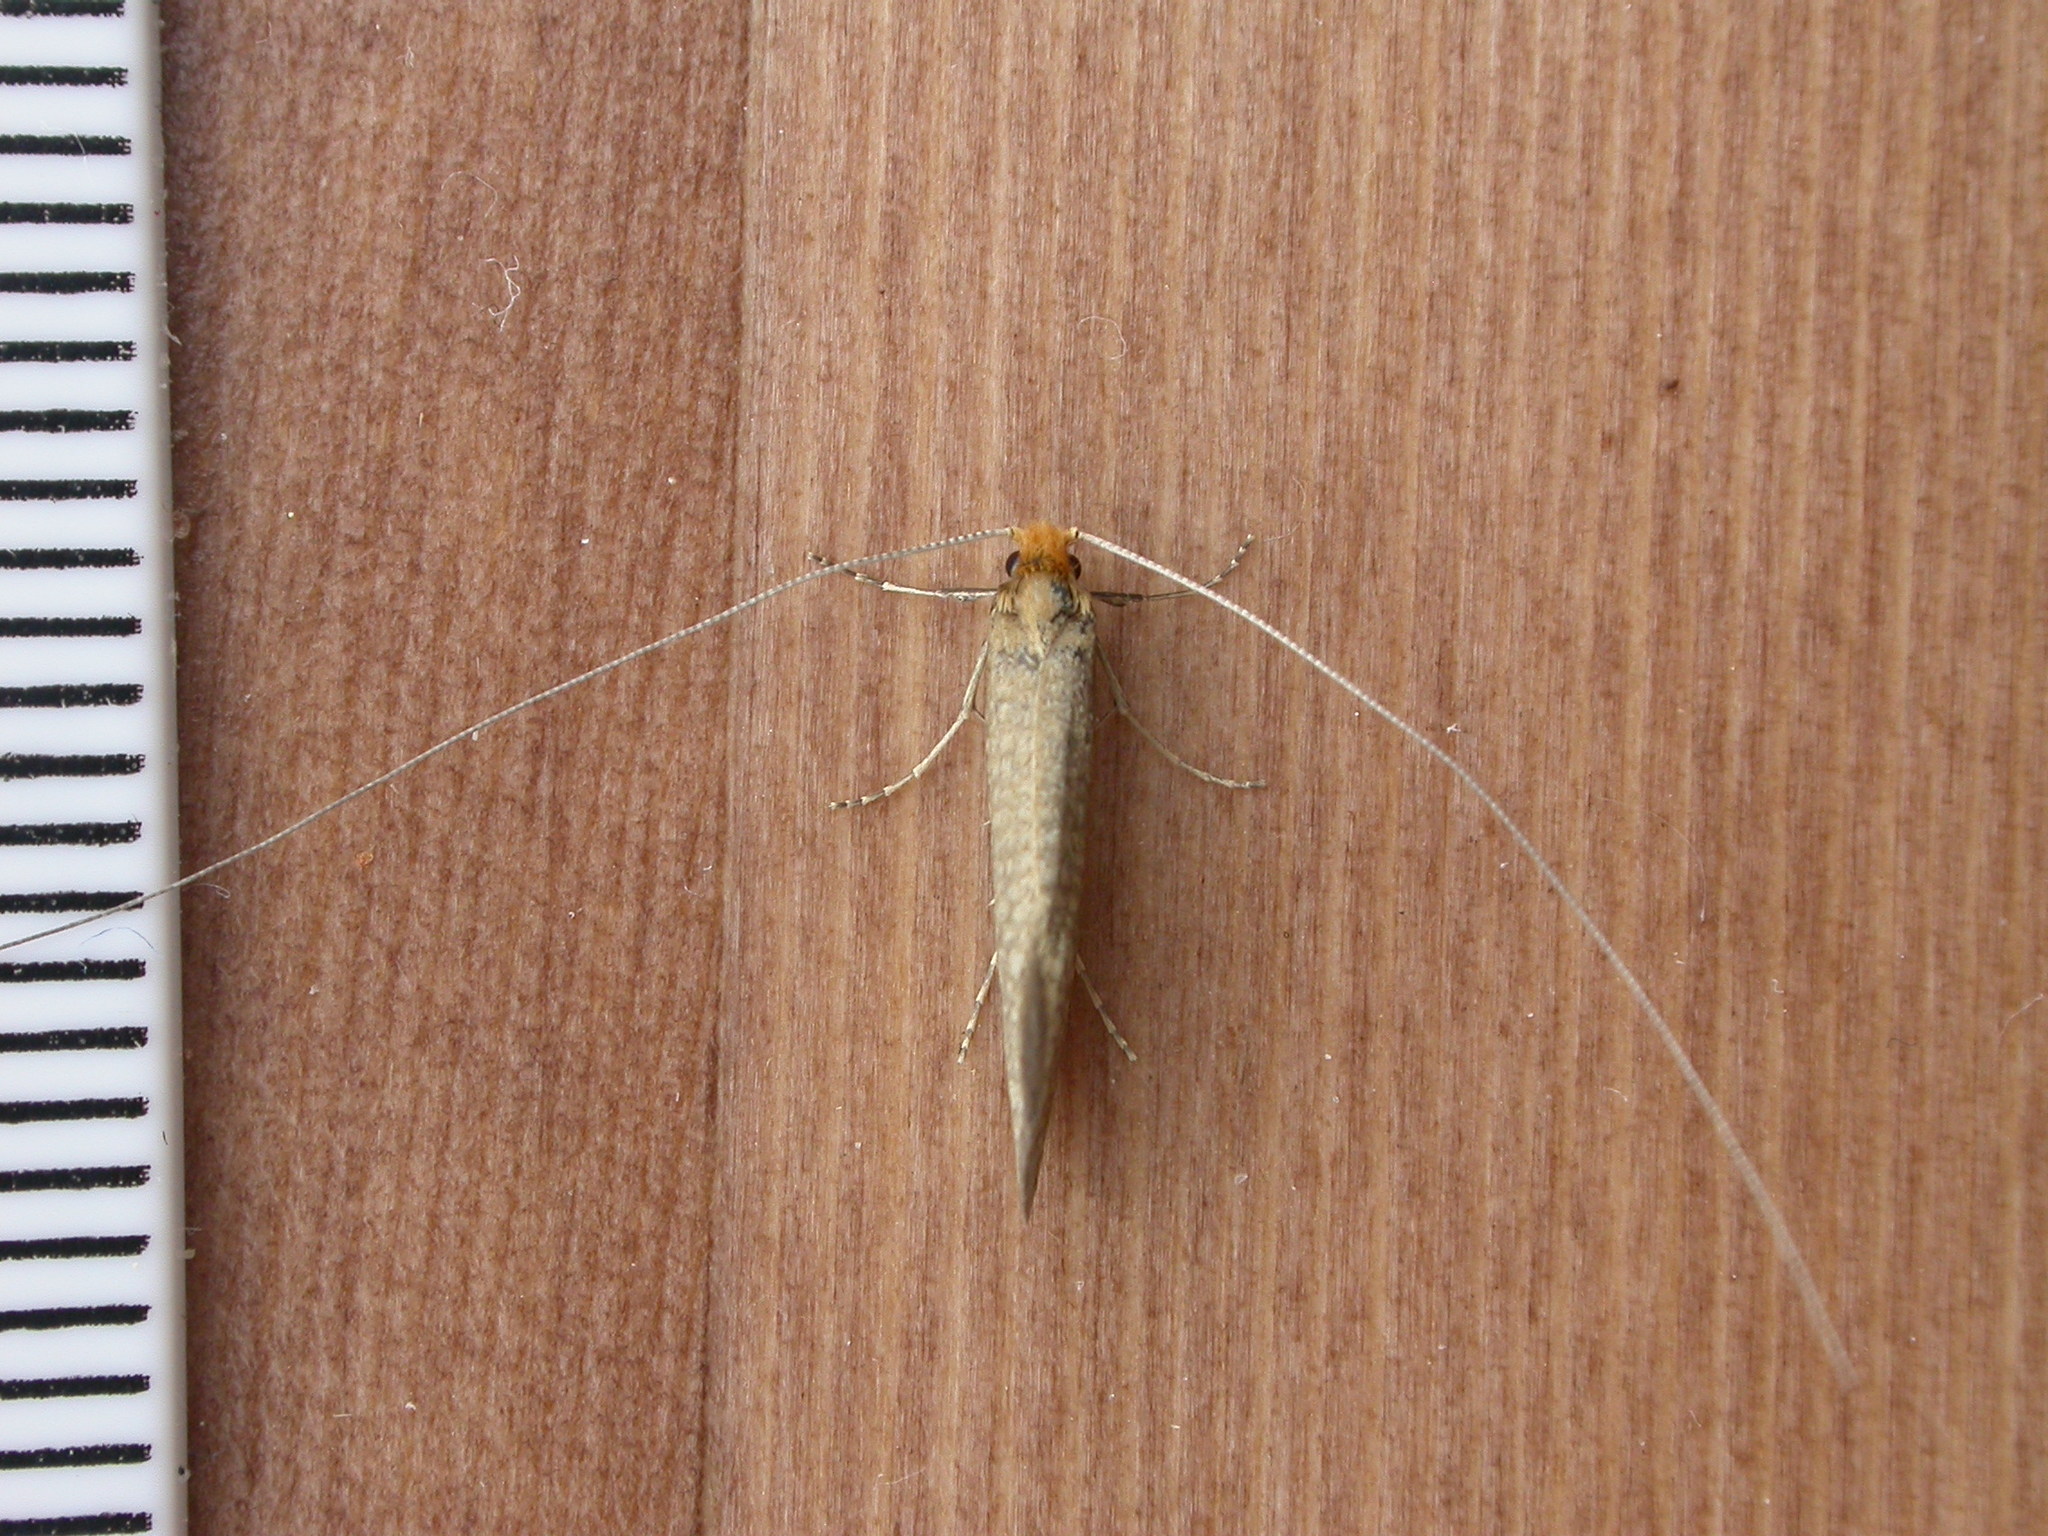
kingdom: Animalia
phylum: Arthropoda
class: Insecta
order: Lepidoptera
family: Adelidae
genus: Nematopogon
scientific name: Nematopogon adansoniella
